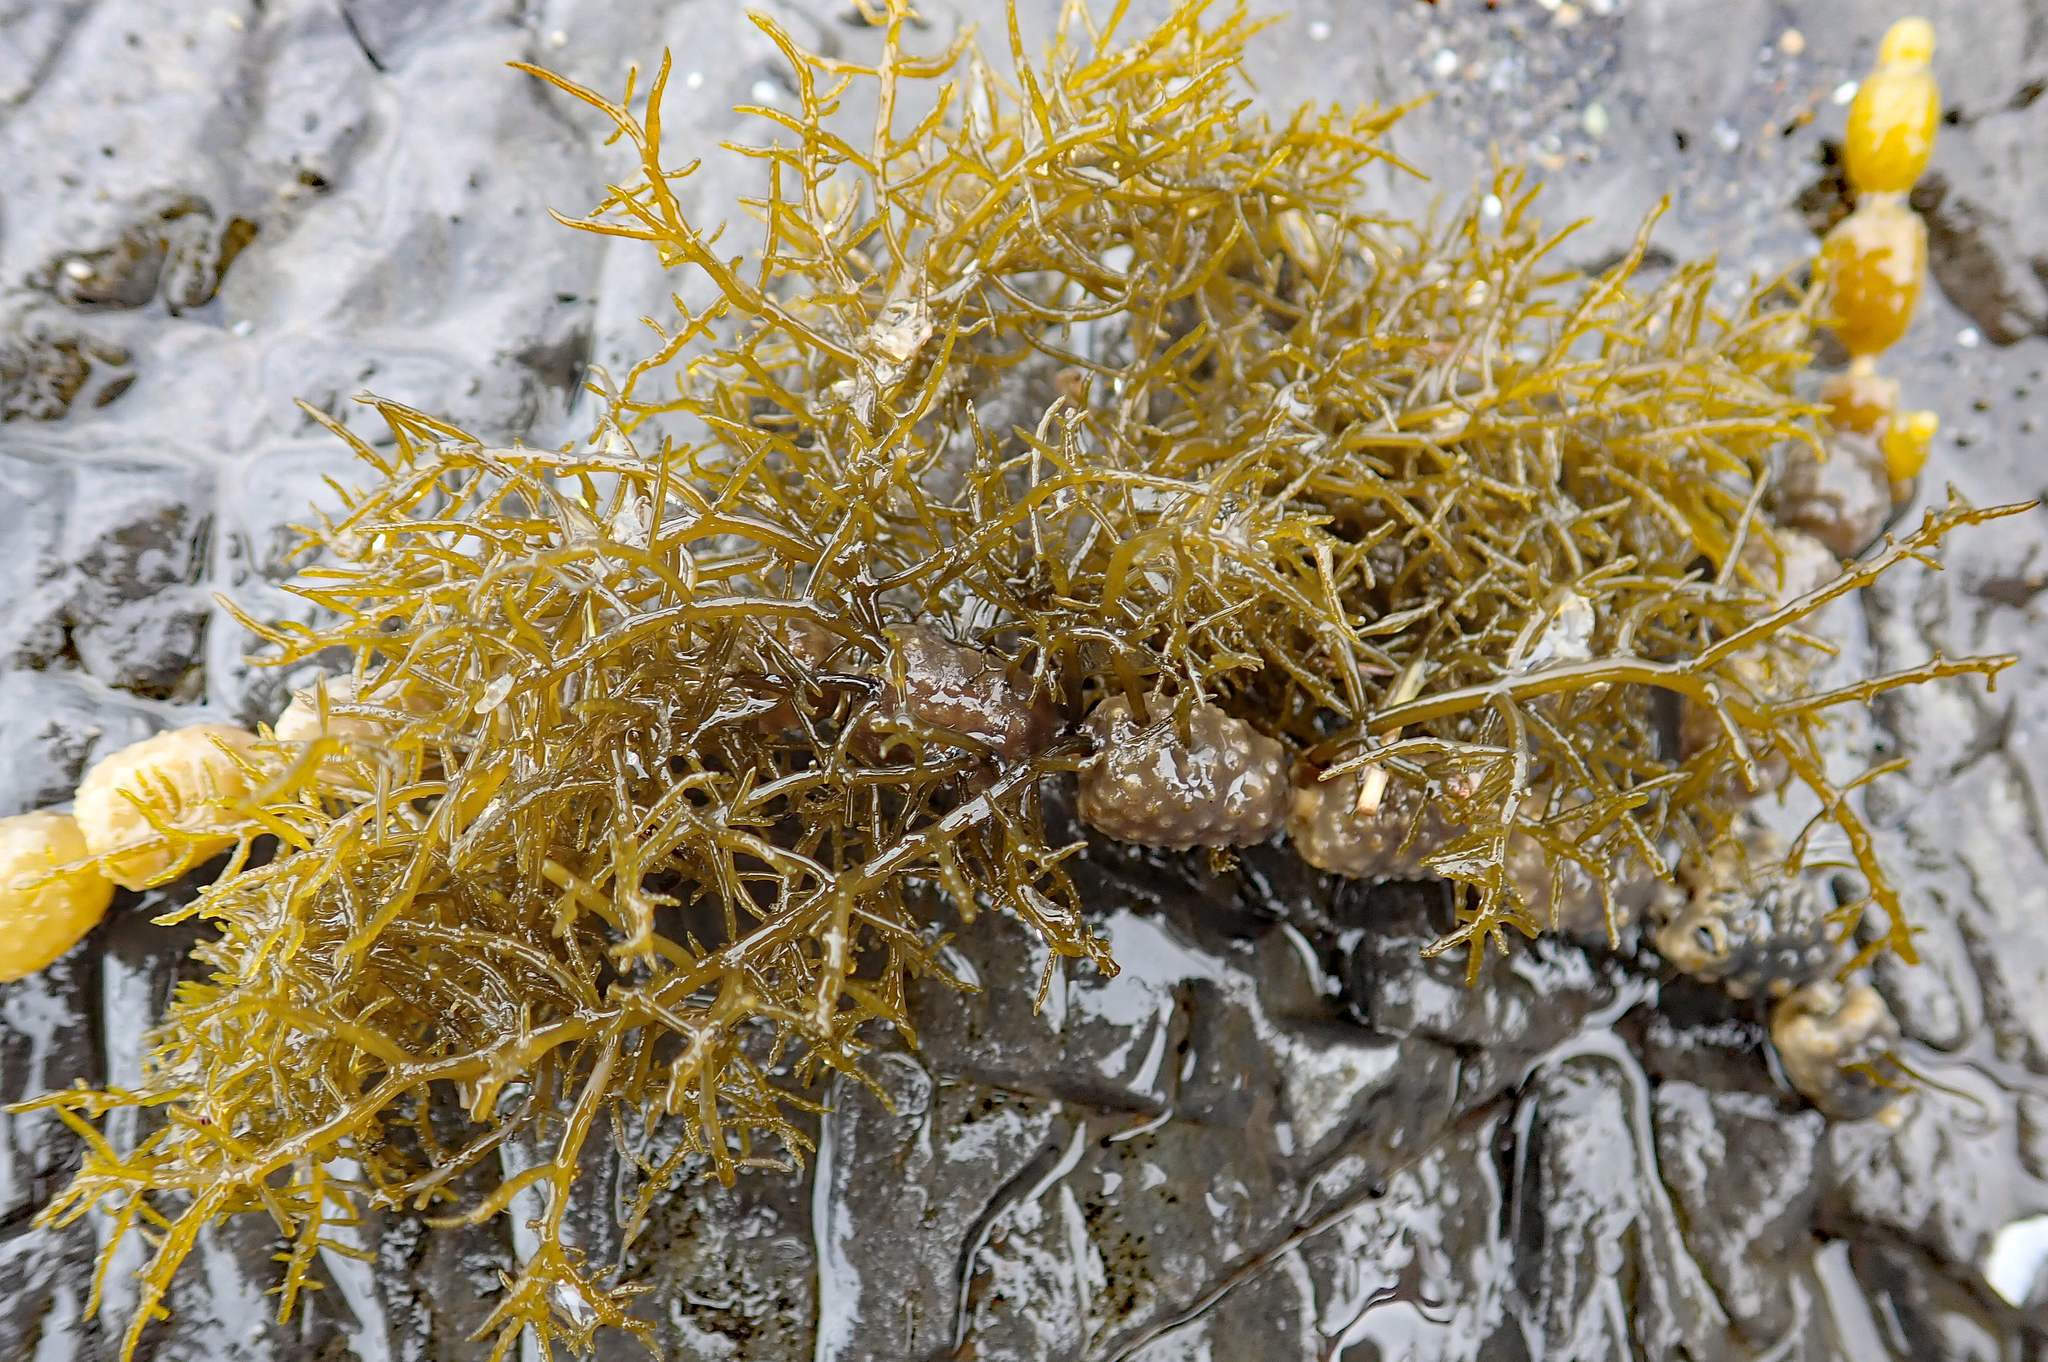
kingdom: Chromista
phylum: Ochrophyta
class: Phaeophyceae
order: Fucales
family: Notheiaceae
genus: Notheia
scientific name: Notheia anomala
